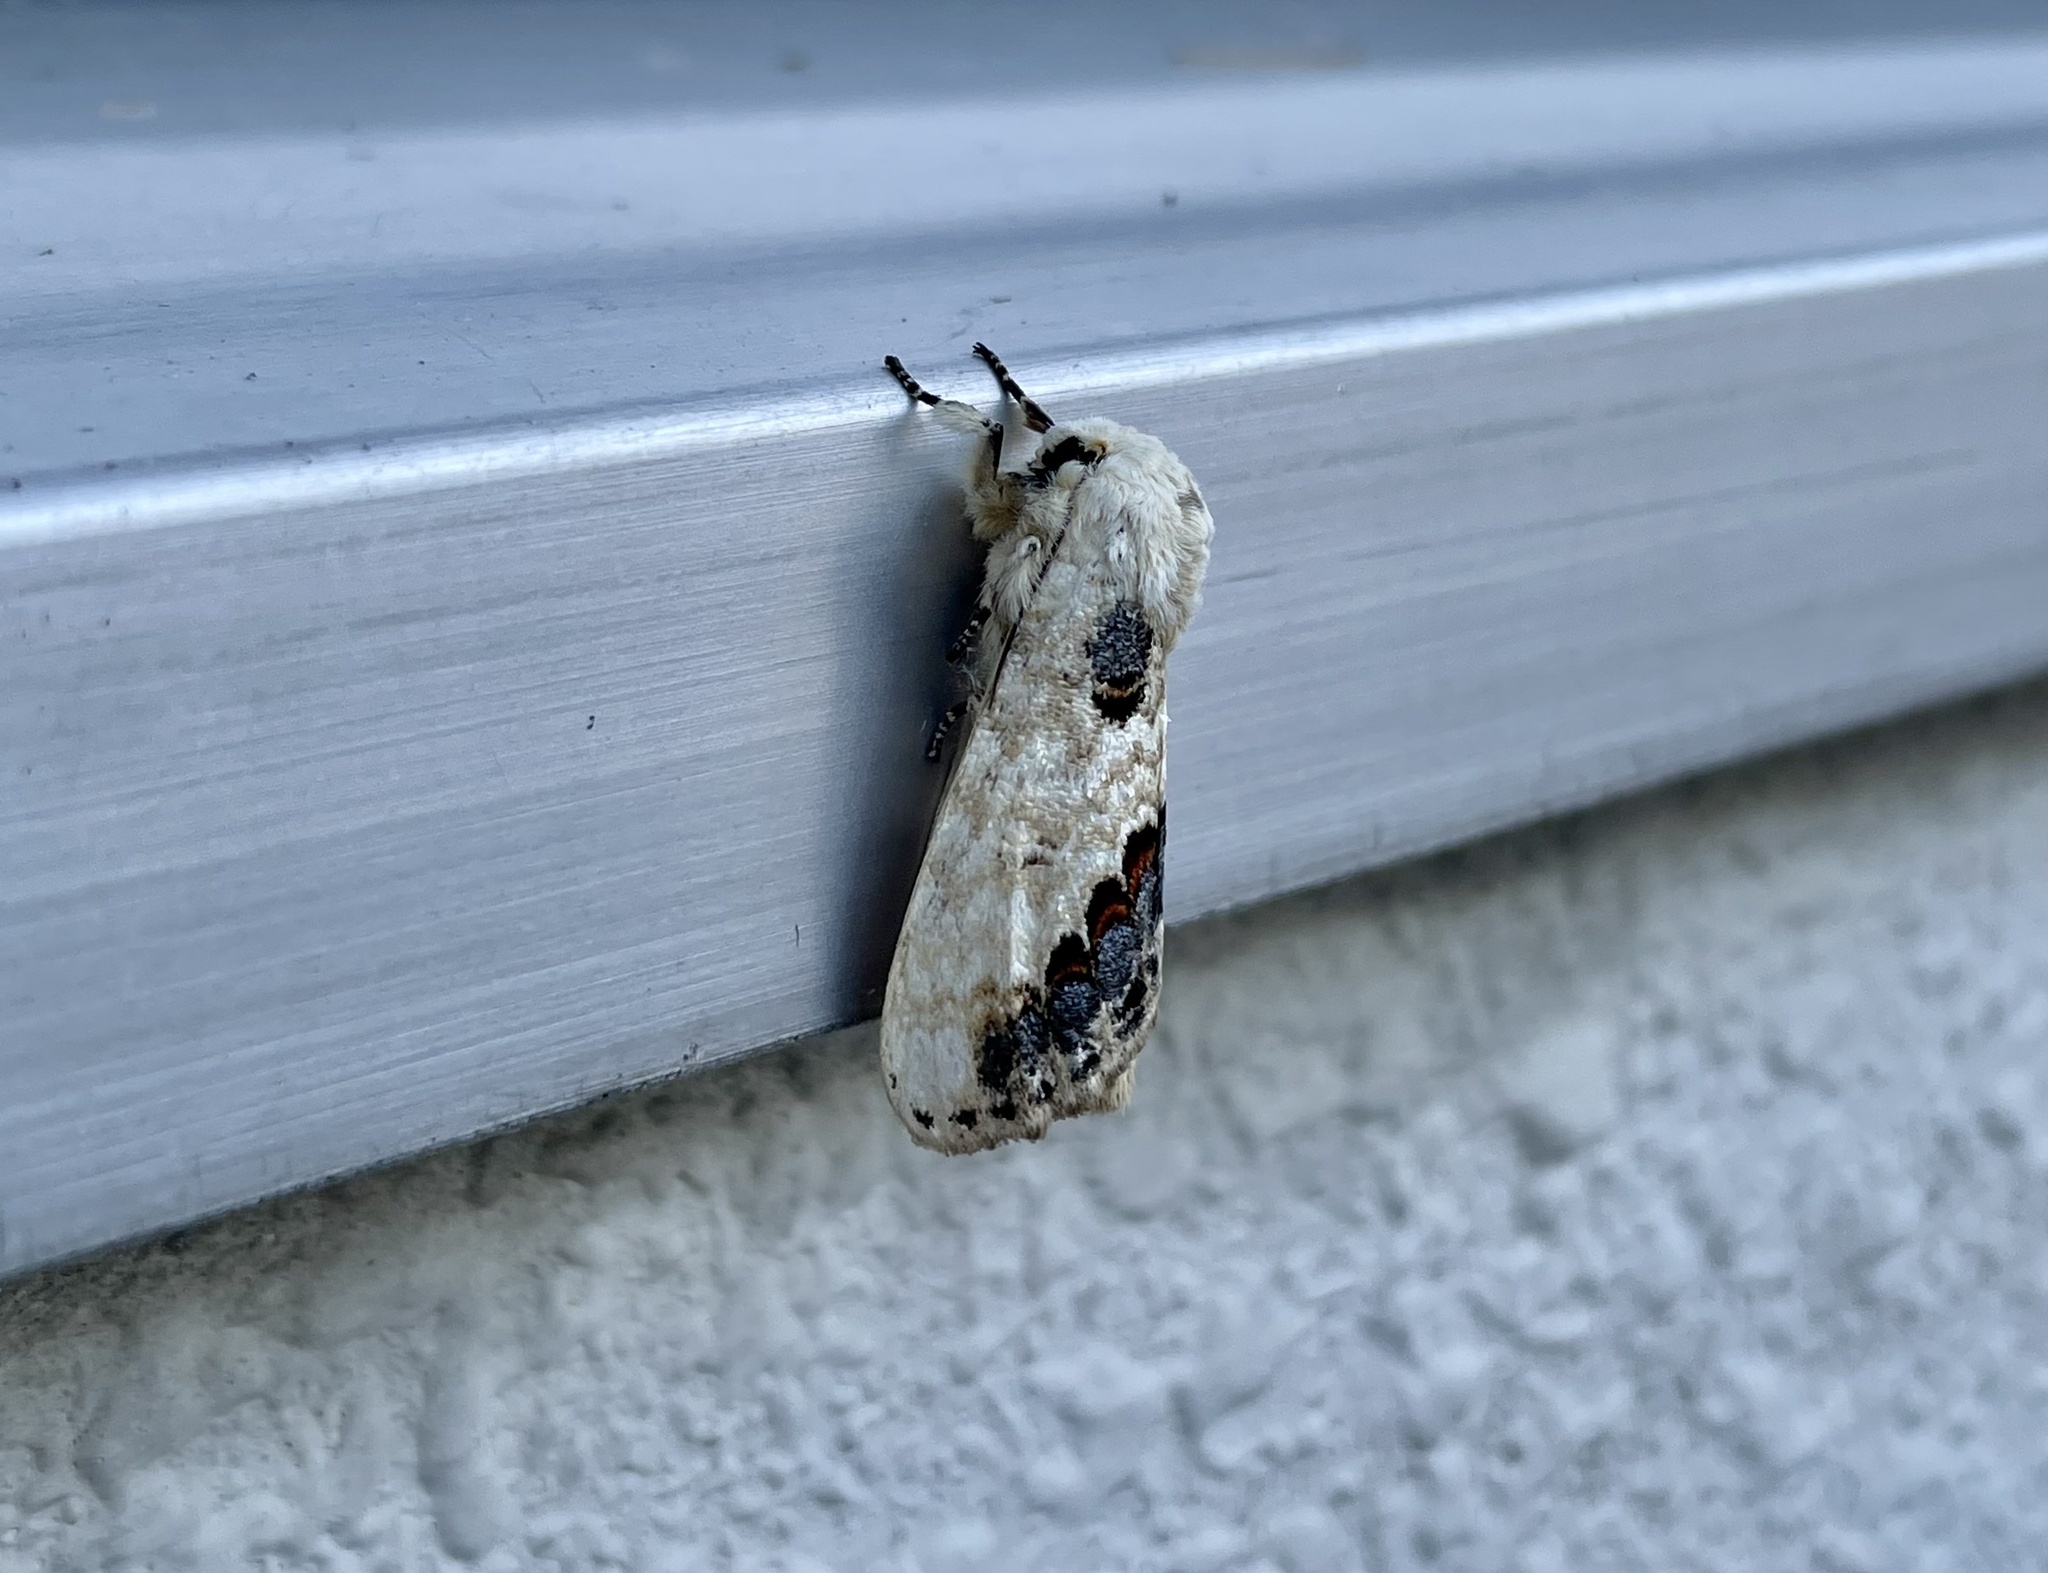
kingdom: Animalia
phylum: Arthropoda
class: Insecta
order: Lepidoptera
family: Notodontidae
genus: Phalera
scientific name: Phalera flavescens
